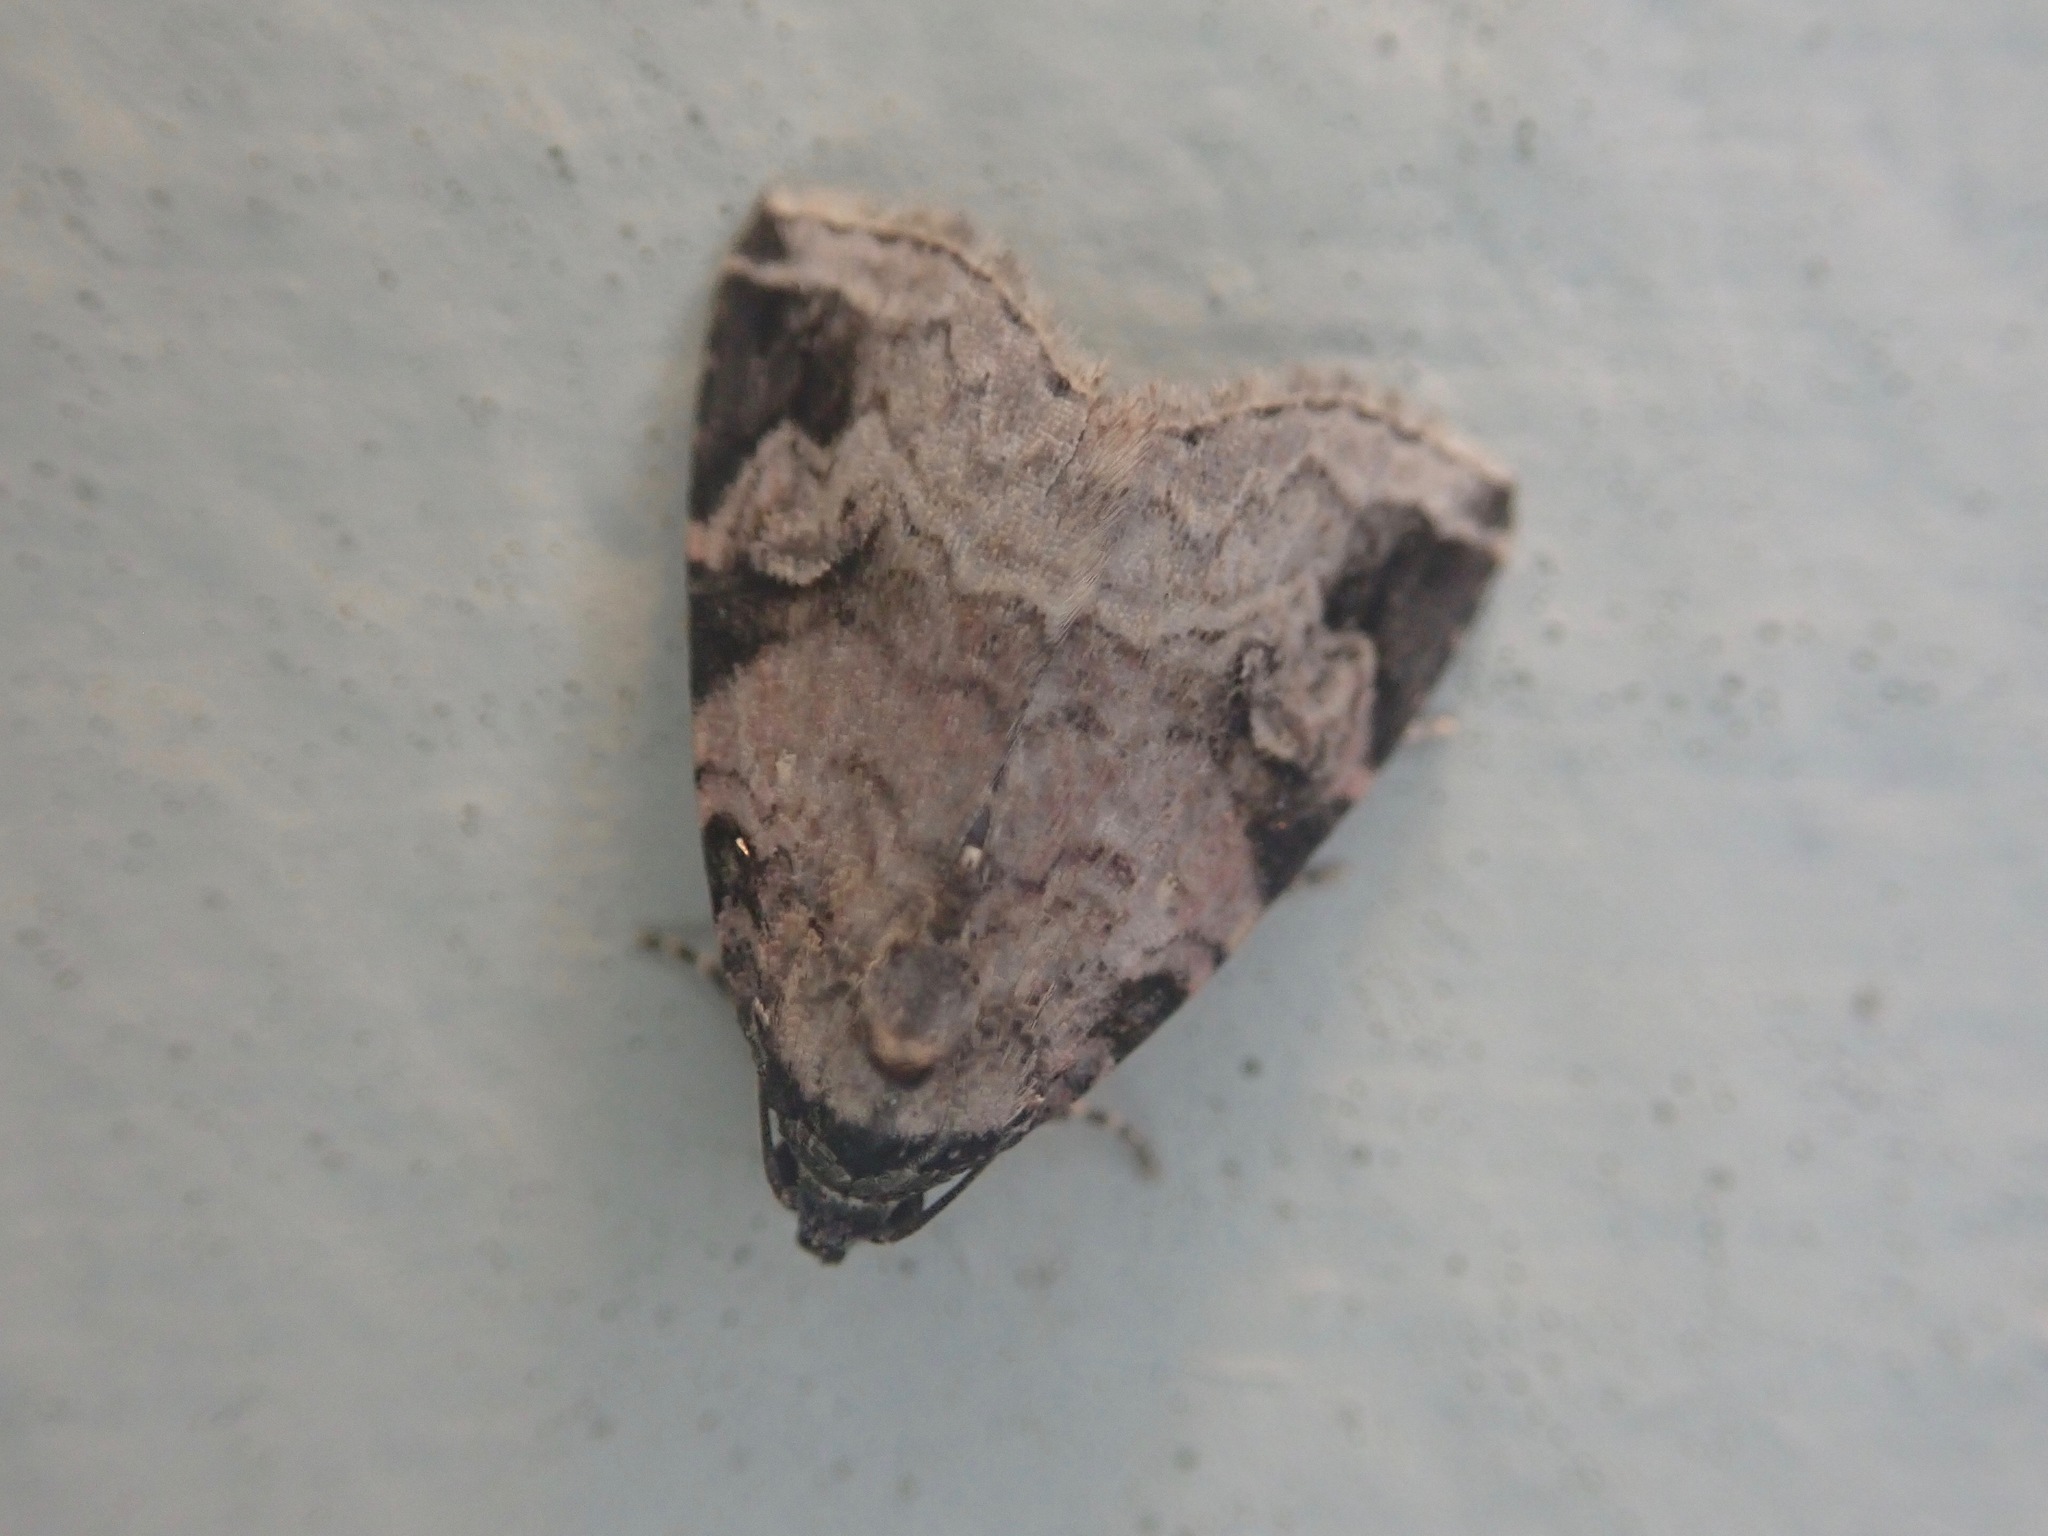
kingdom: Animalia
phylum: Arthropoda
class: Insecta
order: Lepidoptera
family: Noctuidae
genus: Ozarba
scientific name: Ozarba aeria
